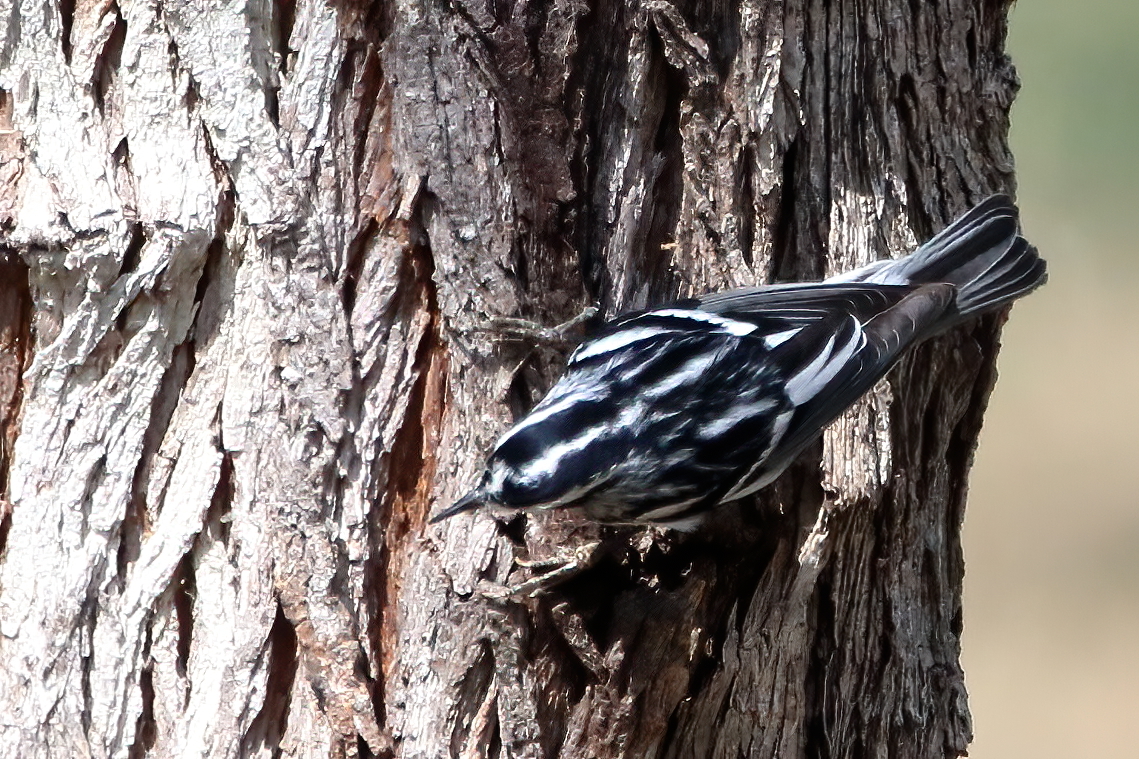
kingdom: Animalia
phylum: Chordata
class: Aves
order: Passeriformes
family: Parulidae
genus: Mniotilta
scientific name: Mniotilta varia
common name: Black-and-white warbler
